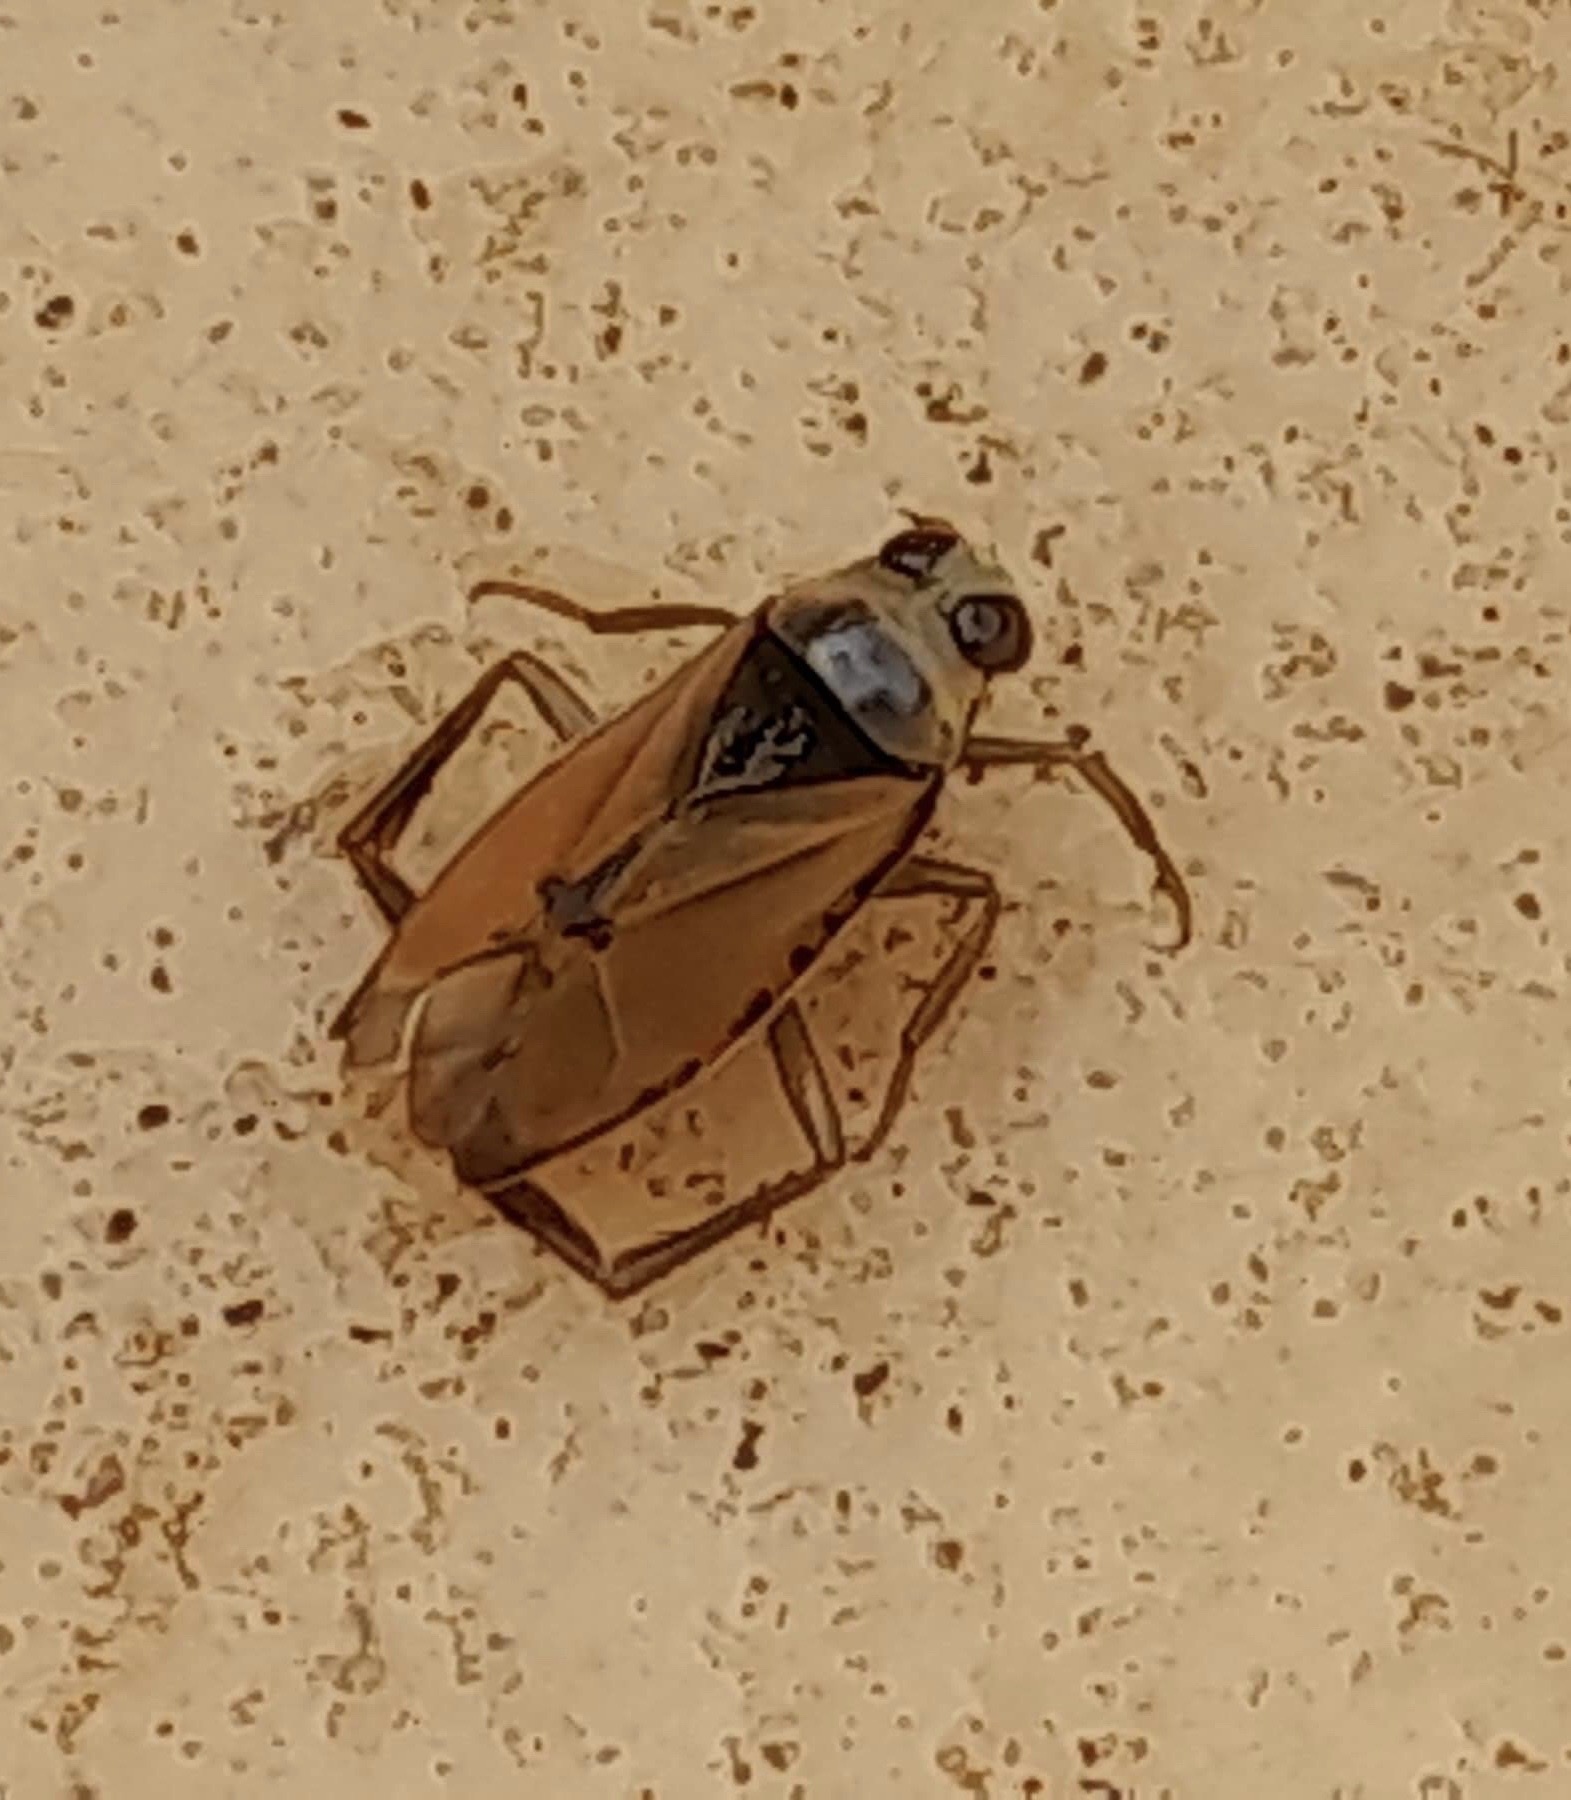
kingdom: Animalia
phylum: Arthropoda
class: Insecta
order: Hemiptera
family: Notonectidae
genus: Notonecta
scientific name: Notonecta glauca
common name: Common water-boatman
